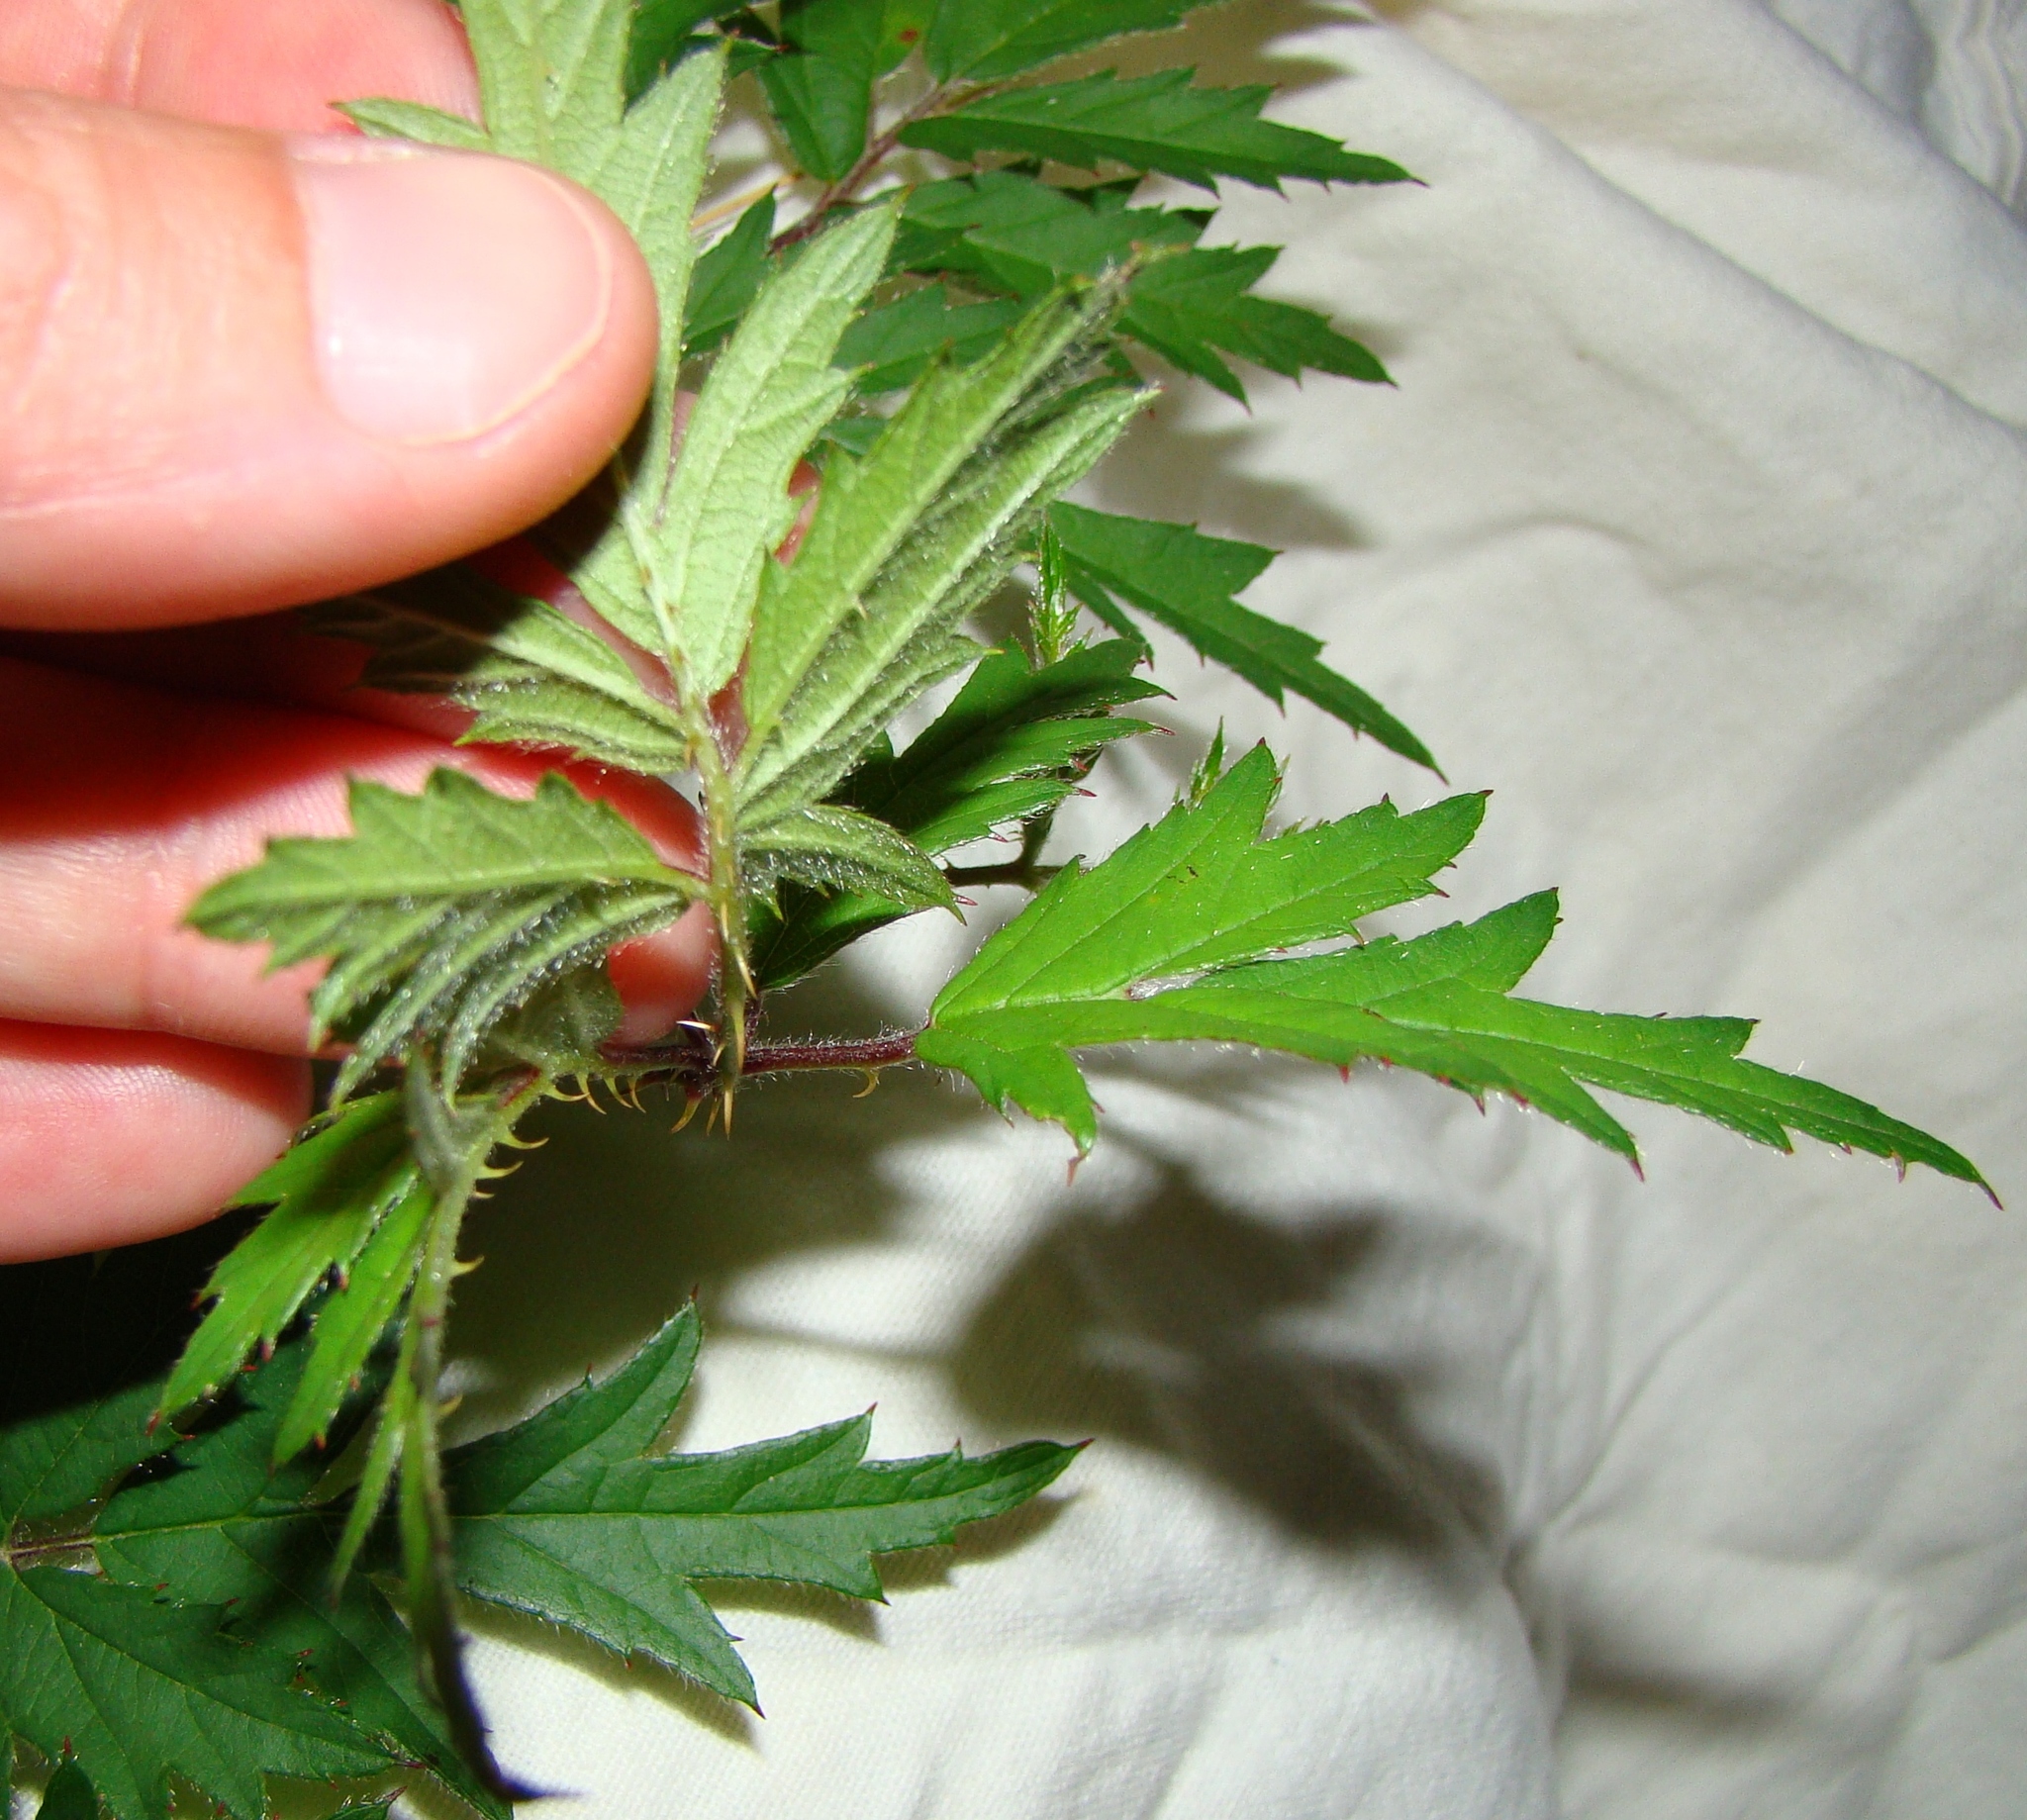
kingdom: Plantae
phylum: Tracheophyta
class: Magnoliopsida
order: Rosales
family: Rosaceae
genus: Rubus
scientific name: Rubus laciniatus
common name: Evergreen blackberry
